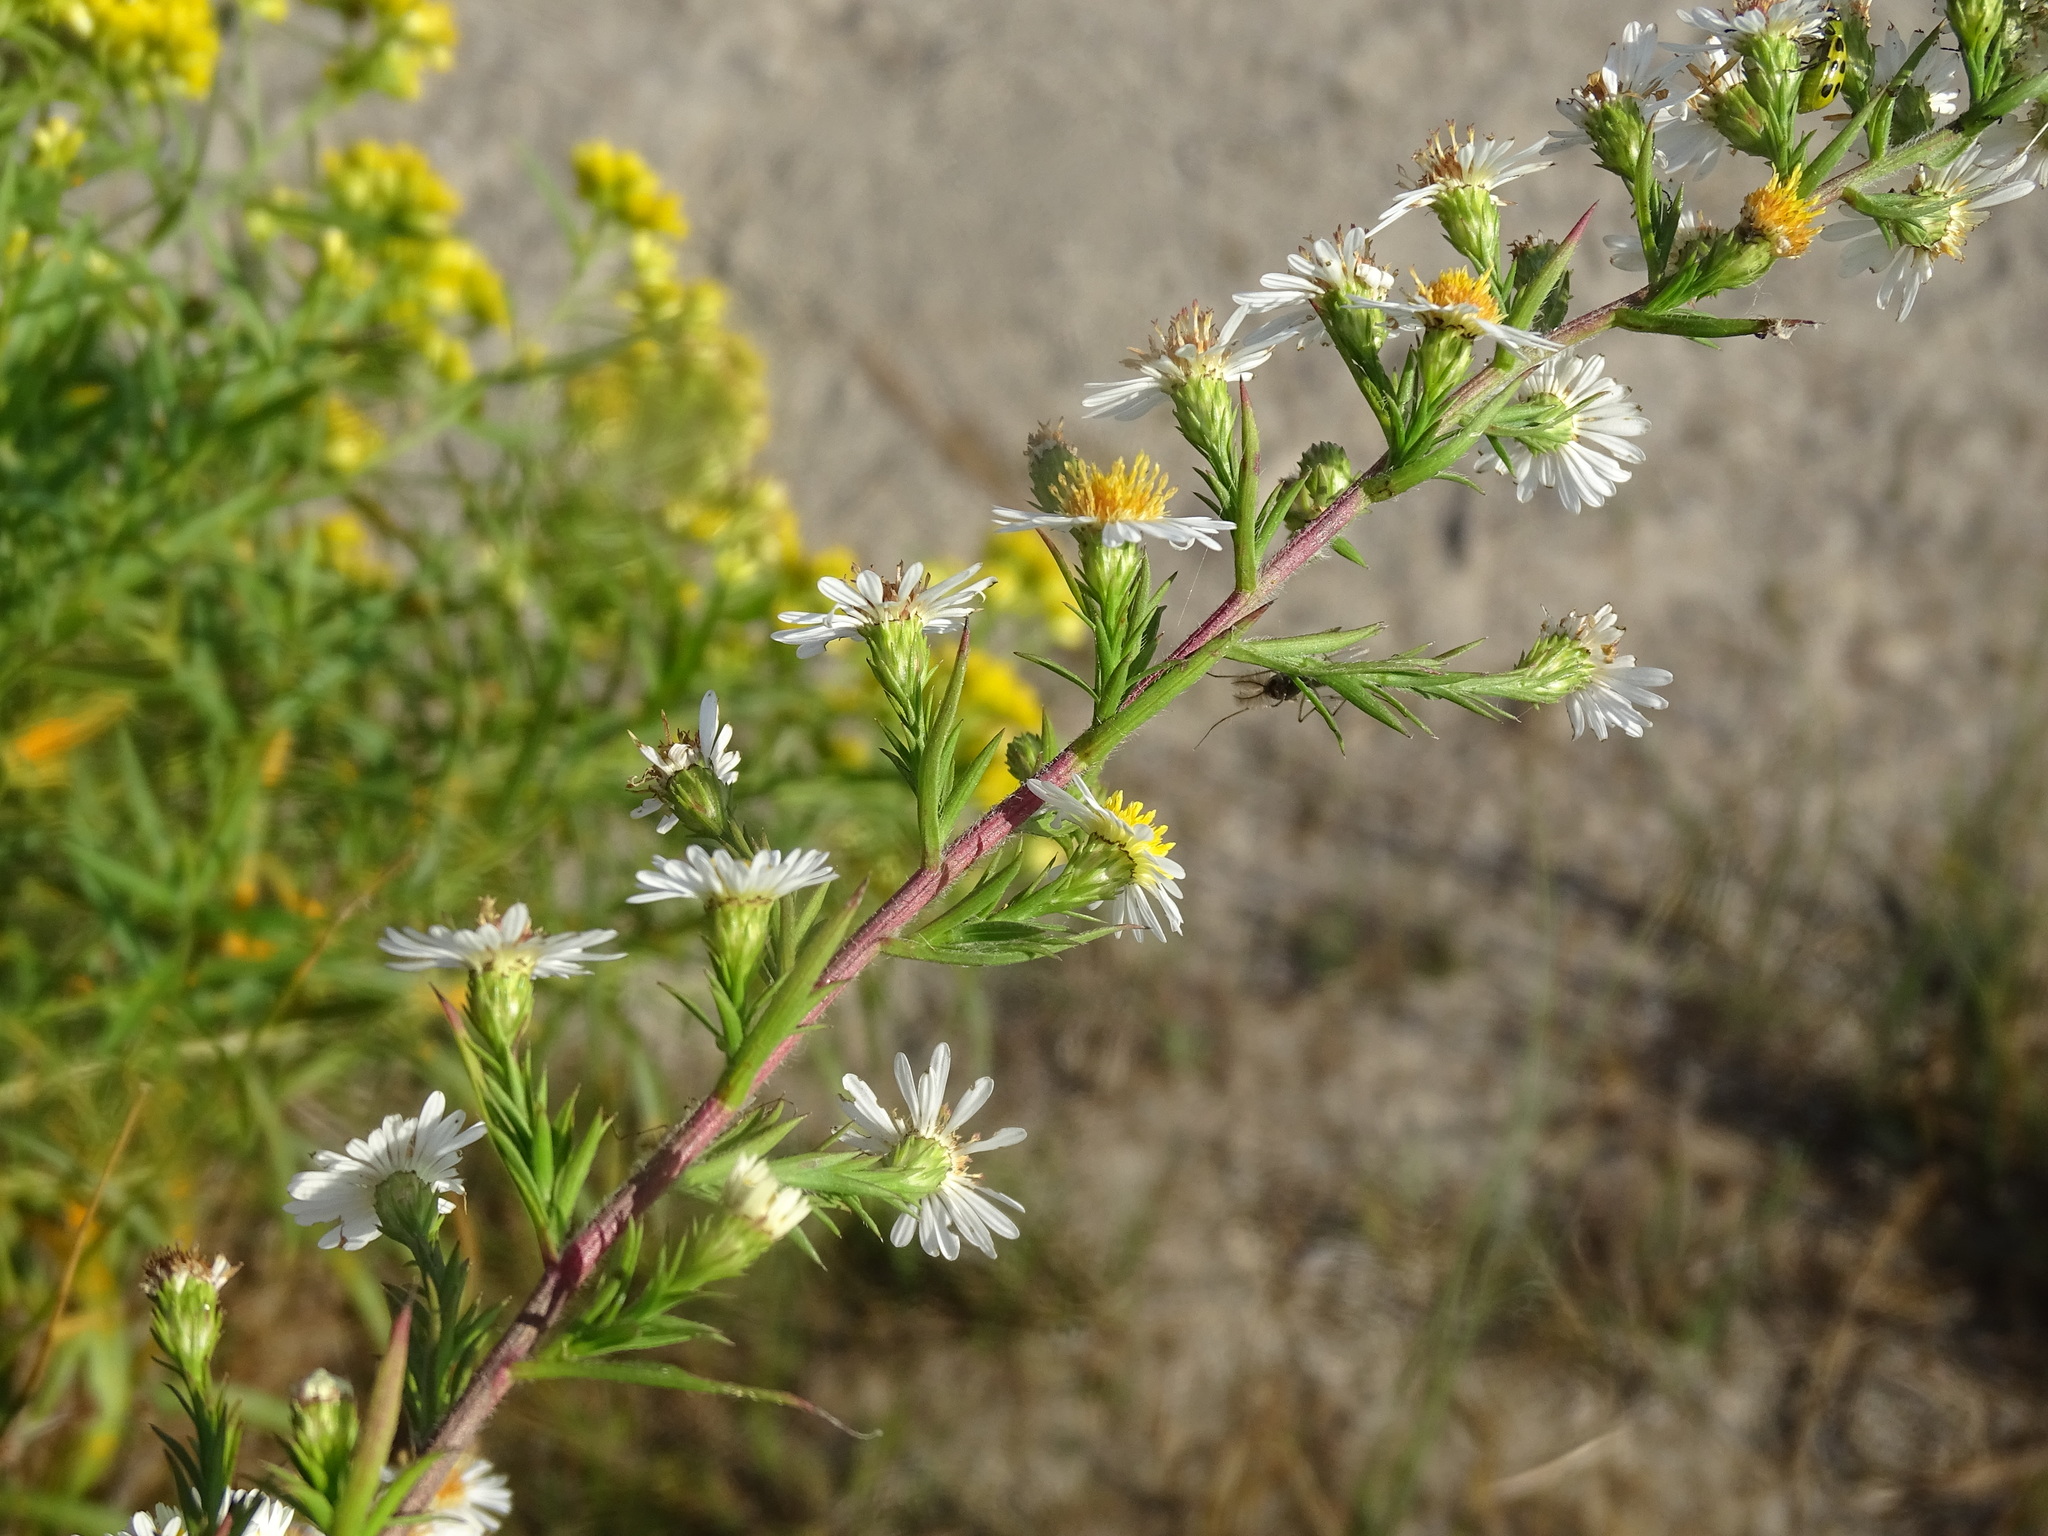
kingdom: Plantae
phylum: Tracheophyta
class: Magnoliopsida
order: Asterales
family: Asteraceae
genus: Symphyotrichum
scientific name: Symphyotrichum pilosum
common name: Awl aster
